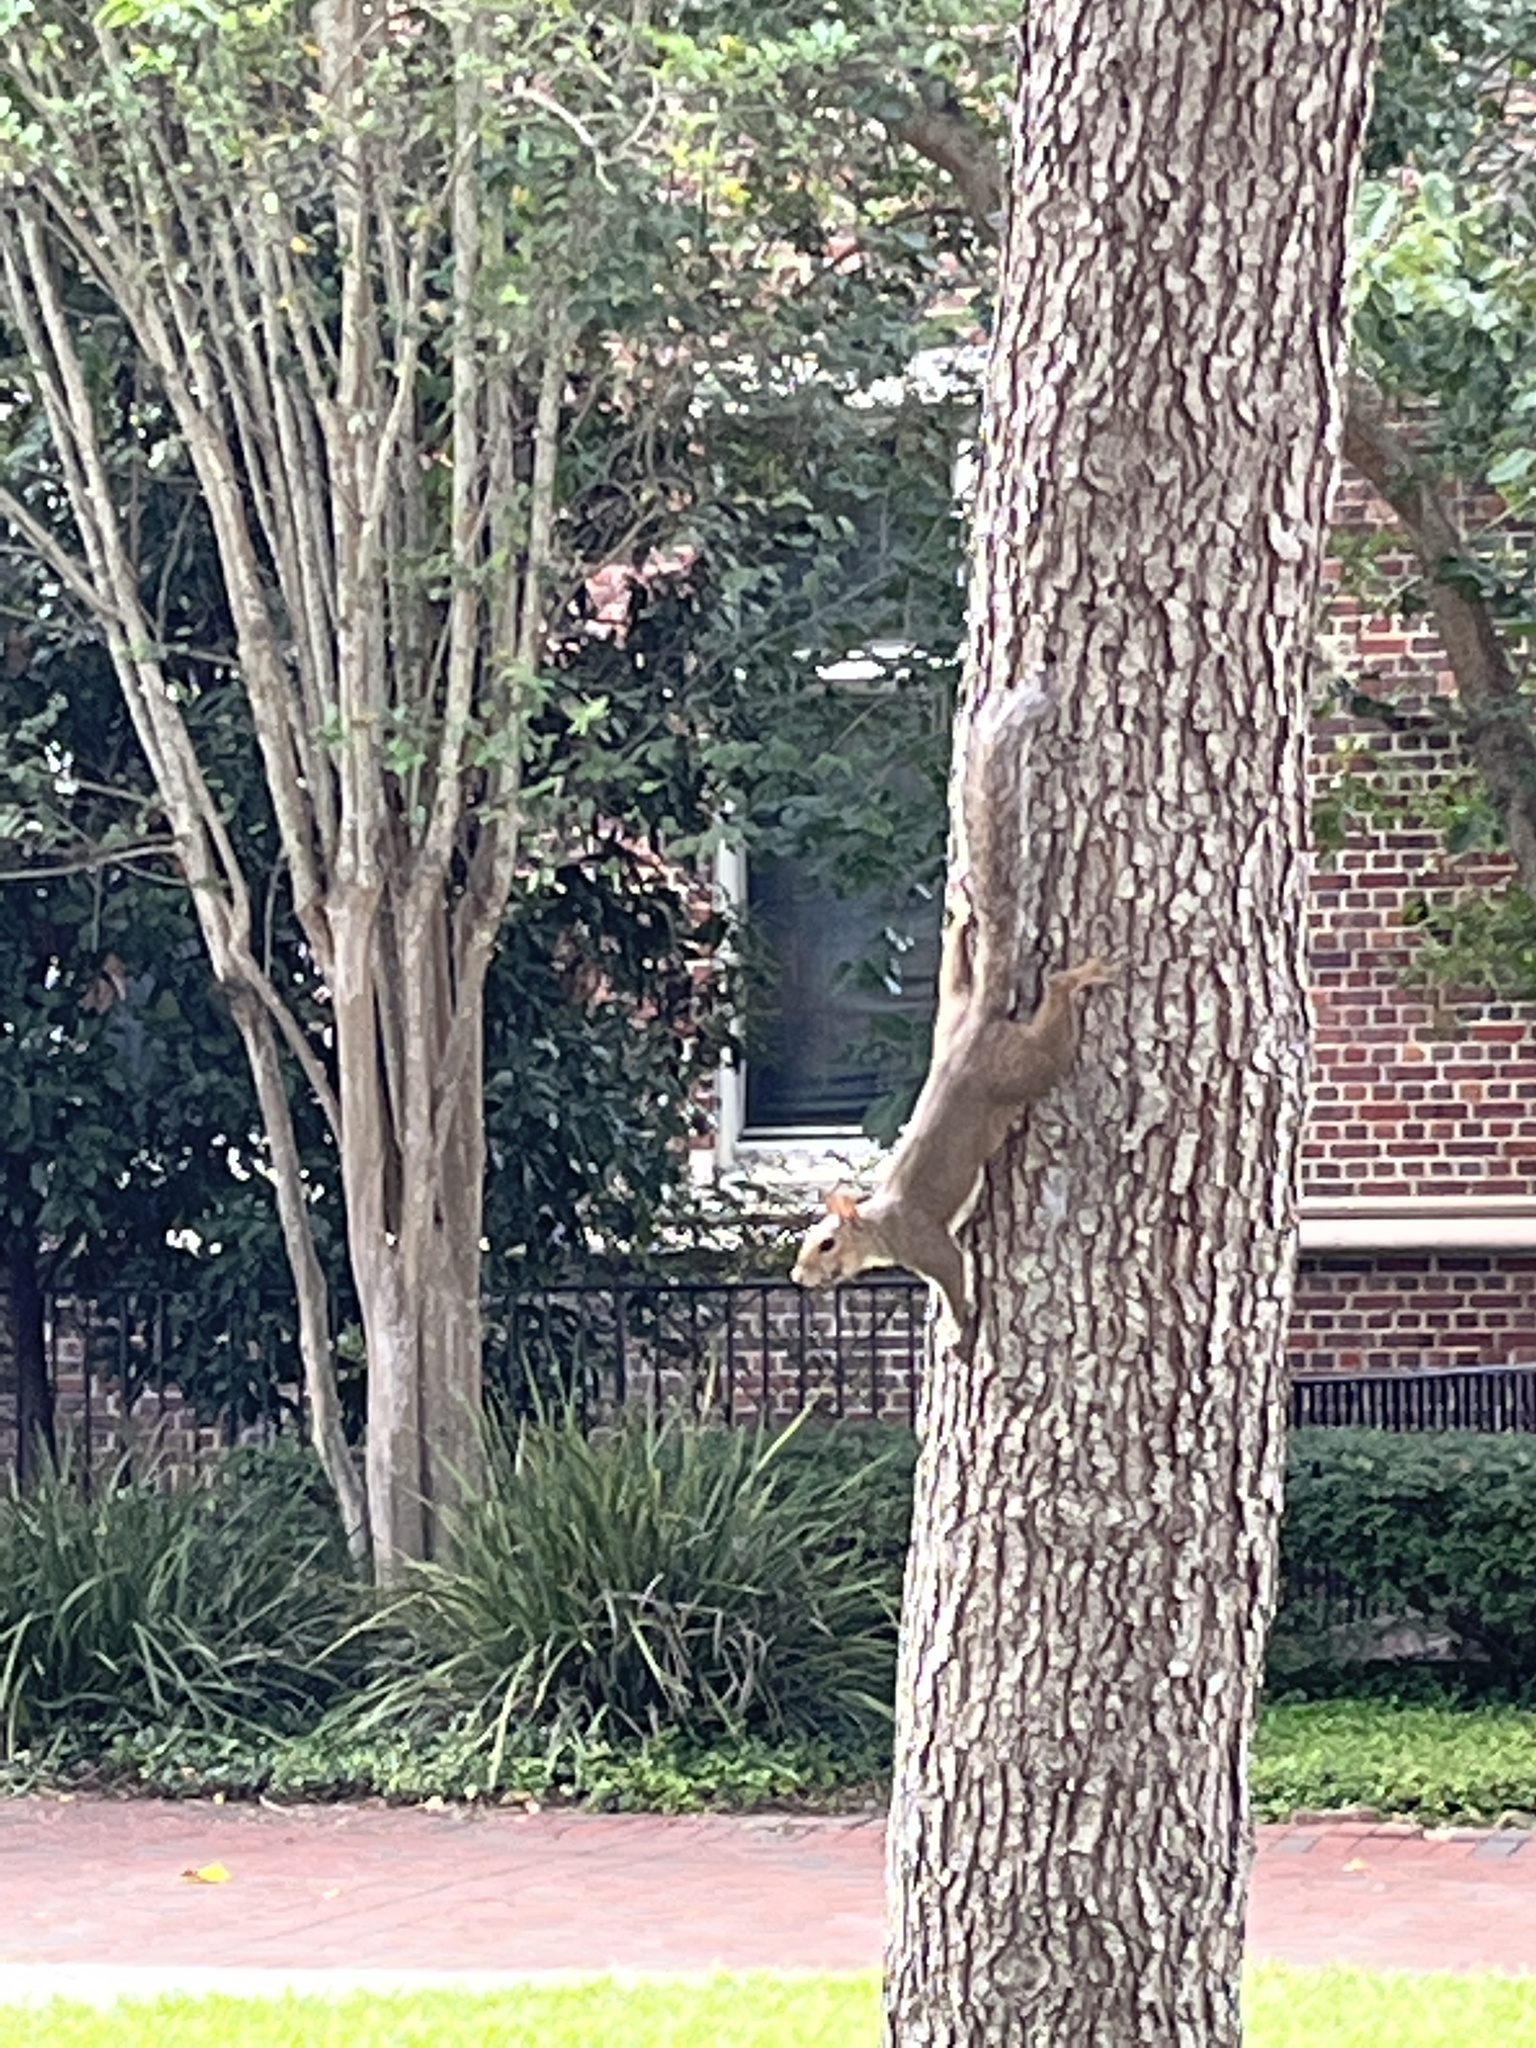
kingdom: Animalia
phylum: Chordata
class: Mammalia
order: Rodentia
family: Sciuridae
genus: Sciurus
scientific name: Sciurus carolinensis
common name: Eastern gray squirrel
